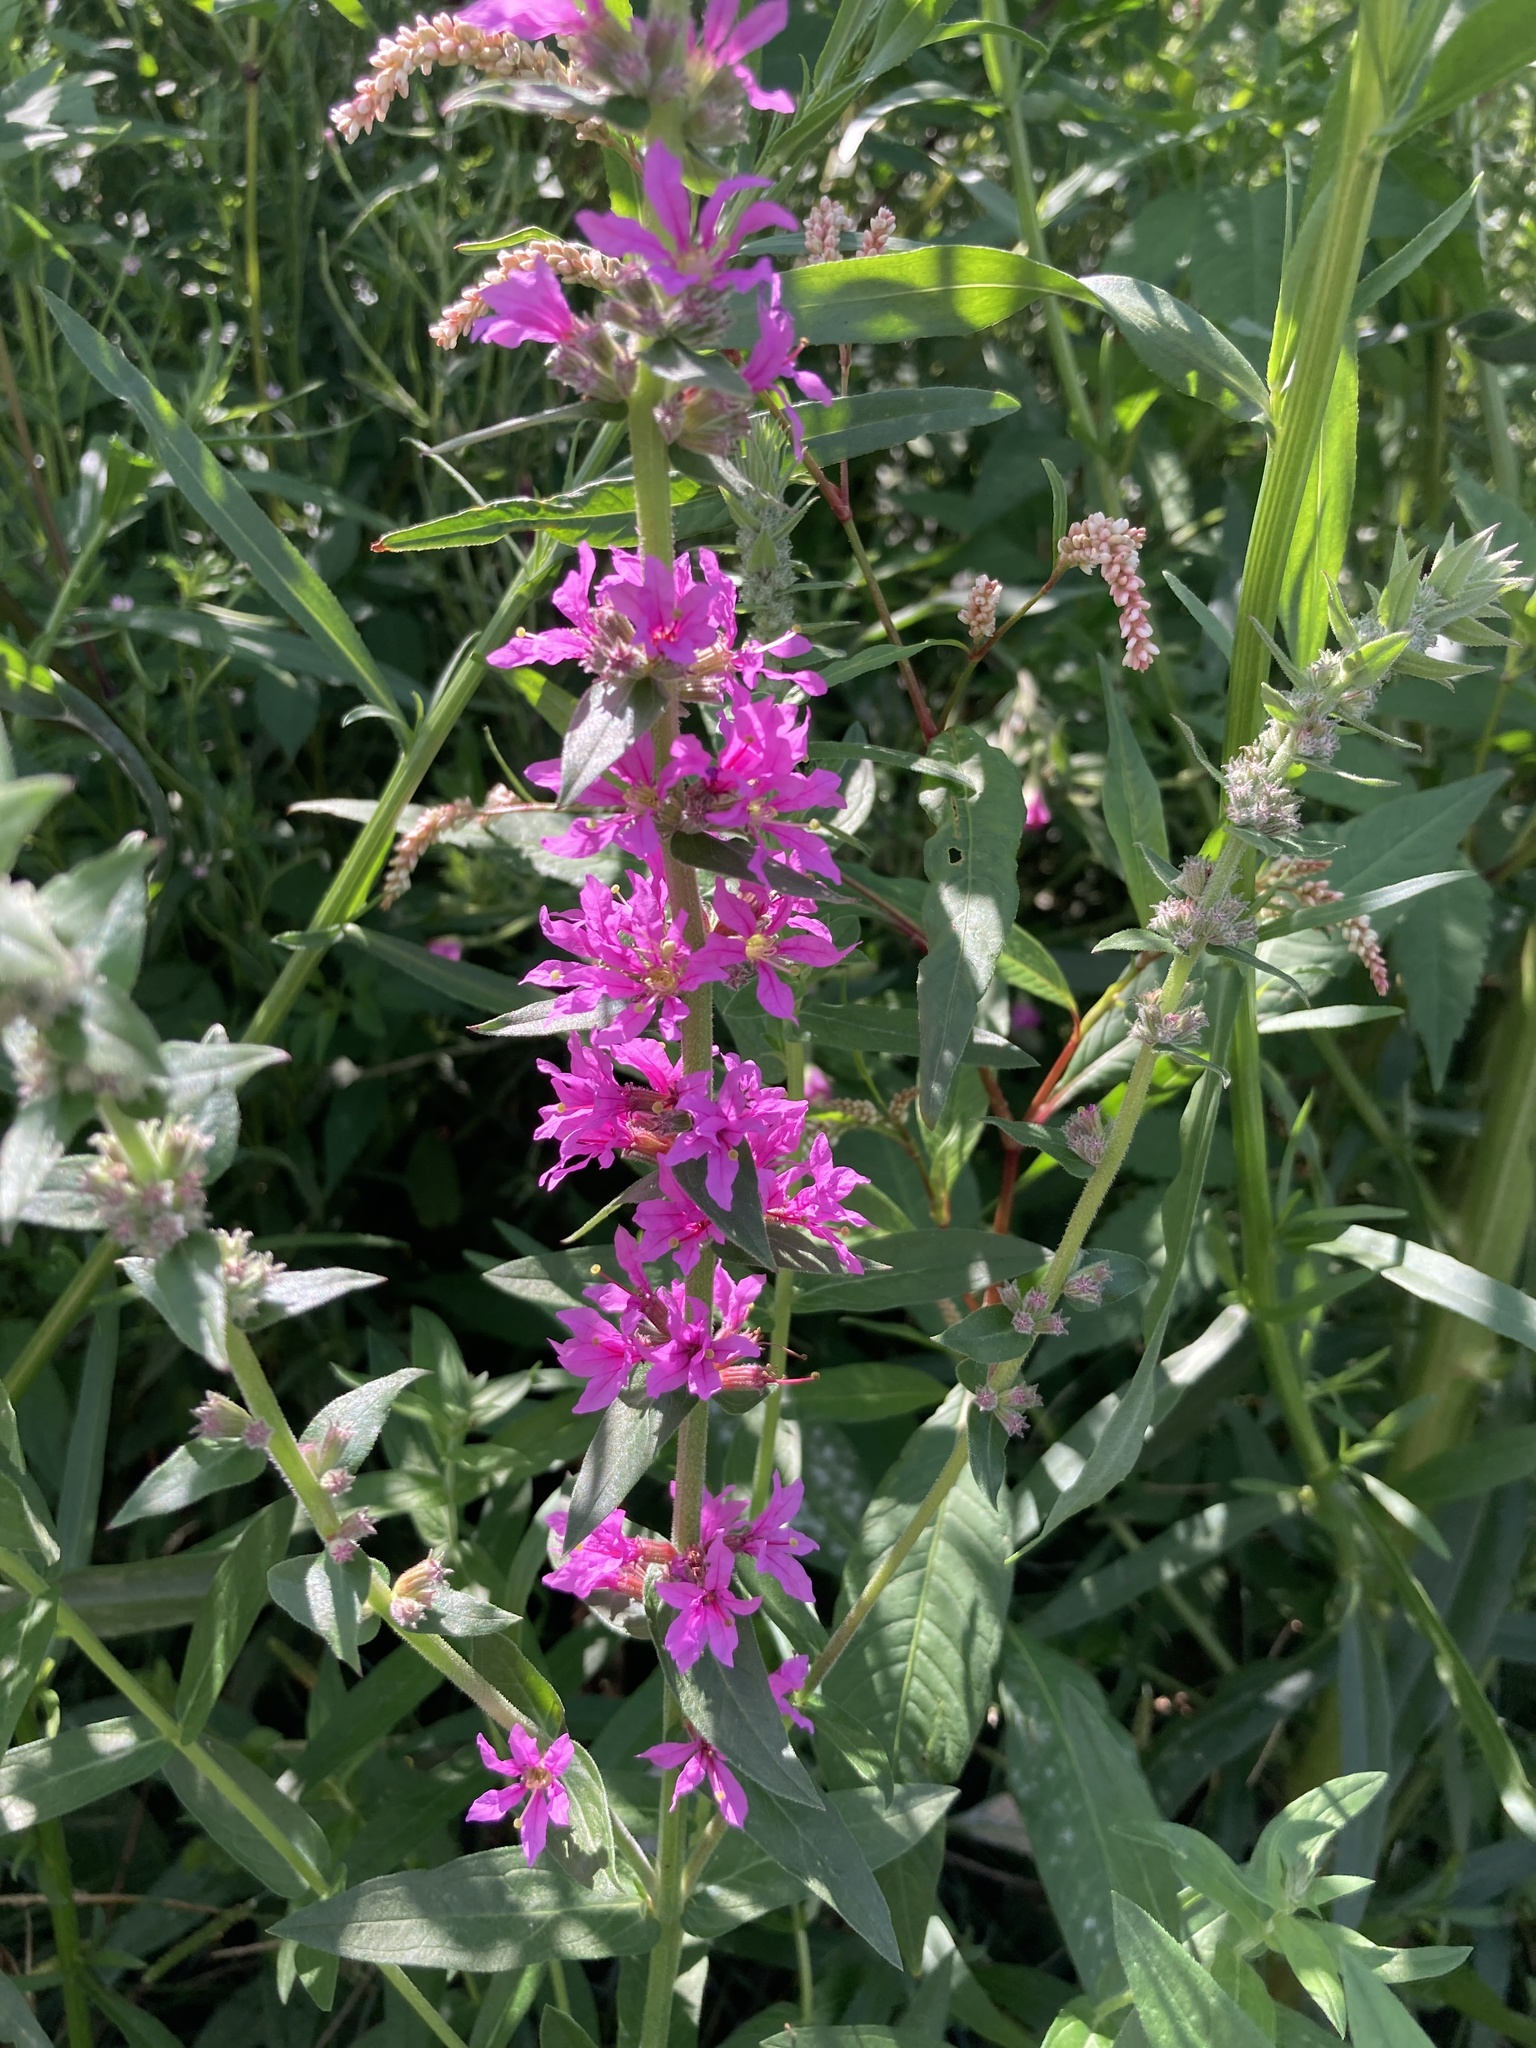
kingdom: Plantae
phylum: Tracheophyta
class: Magnoliopsida
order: Myrtales
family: Lythraceae
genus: Lythrum
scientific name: Lythrum salicaria
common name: Purple loosestrife
